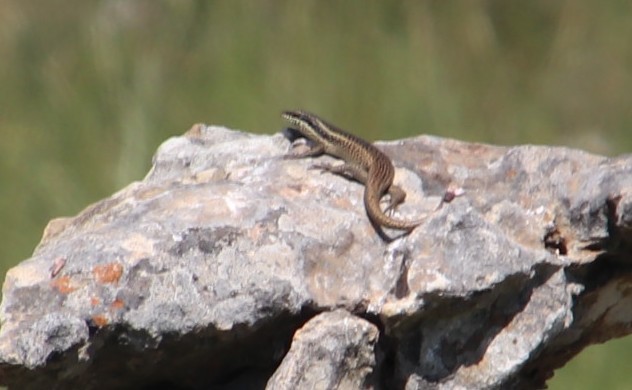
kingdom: Animalia
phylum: Chordata
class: Squamata
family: Scincidae
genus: Trachylepis
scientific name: Trachylepis punctatissima
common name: Montane speckled skink
